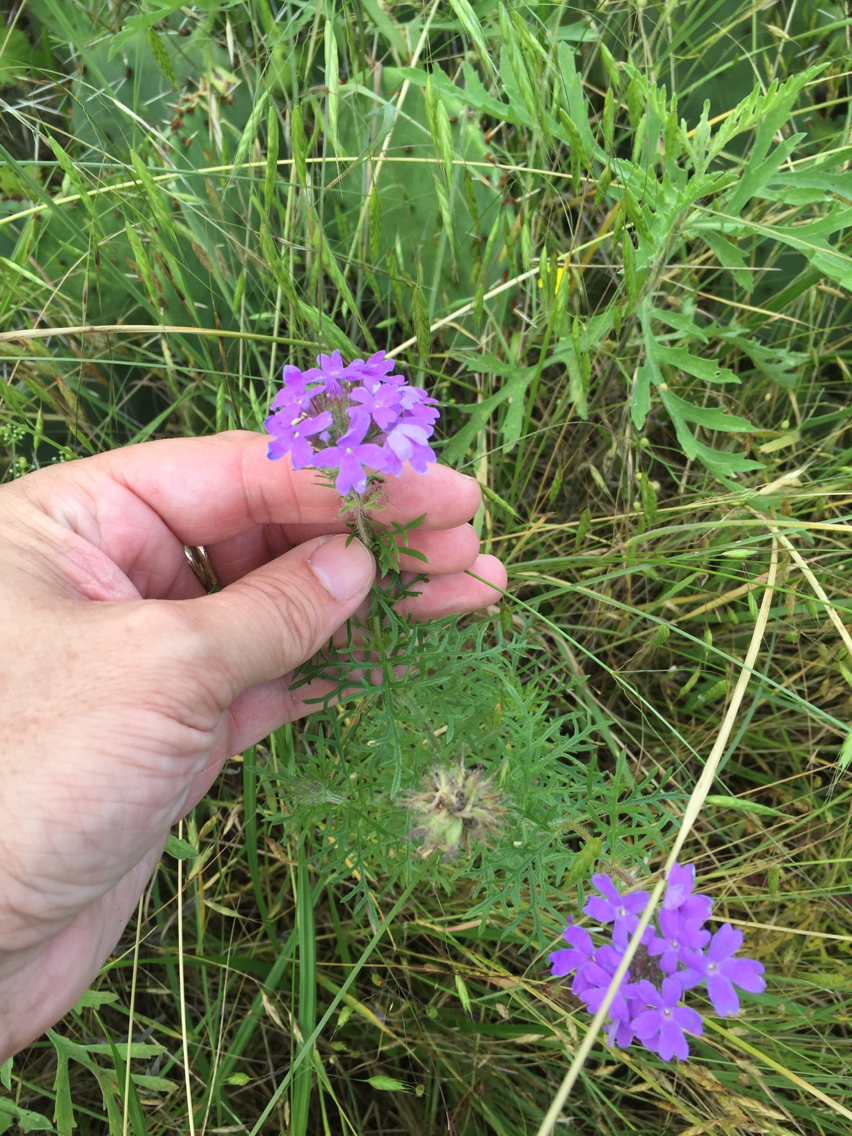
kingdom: Plantae
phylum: Tracheophyta
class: Magnoliopsida
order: Lamiales
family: Verbenaceae
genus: Verbena
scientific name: Verbena bipinnatifida
